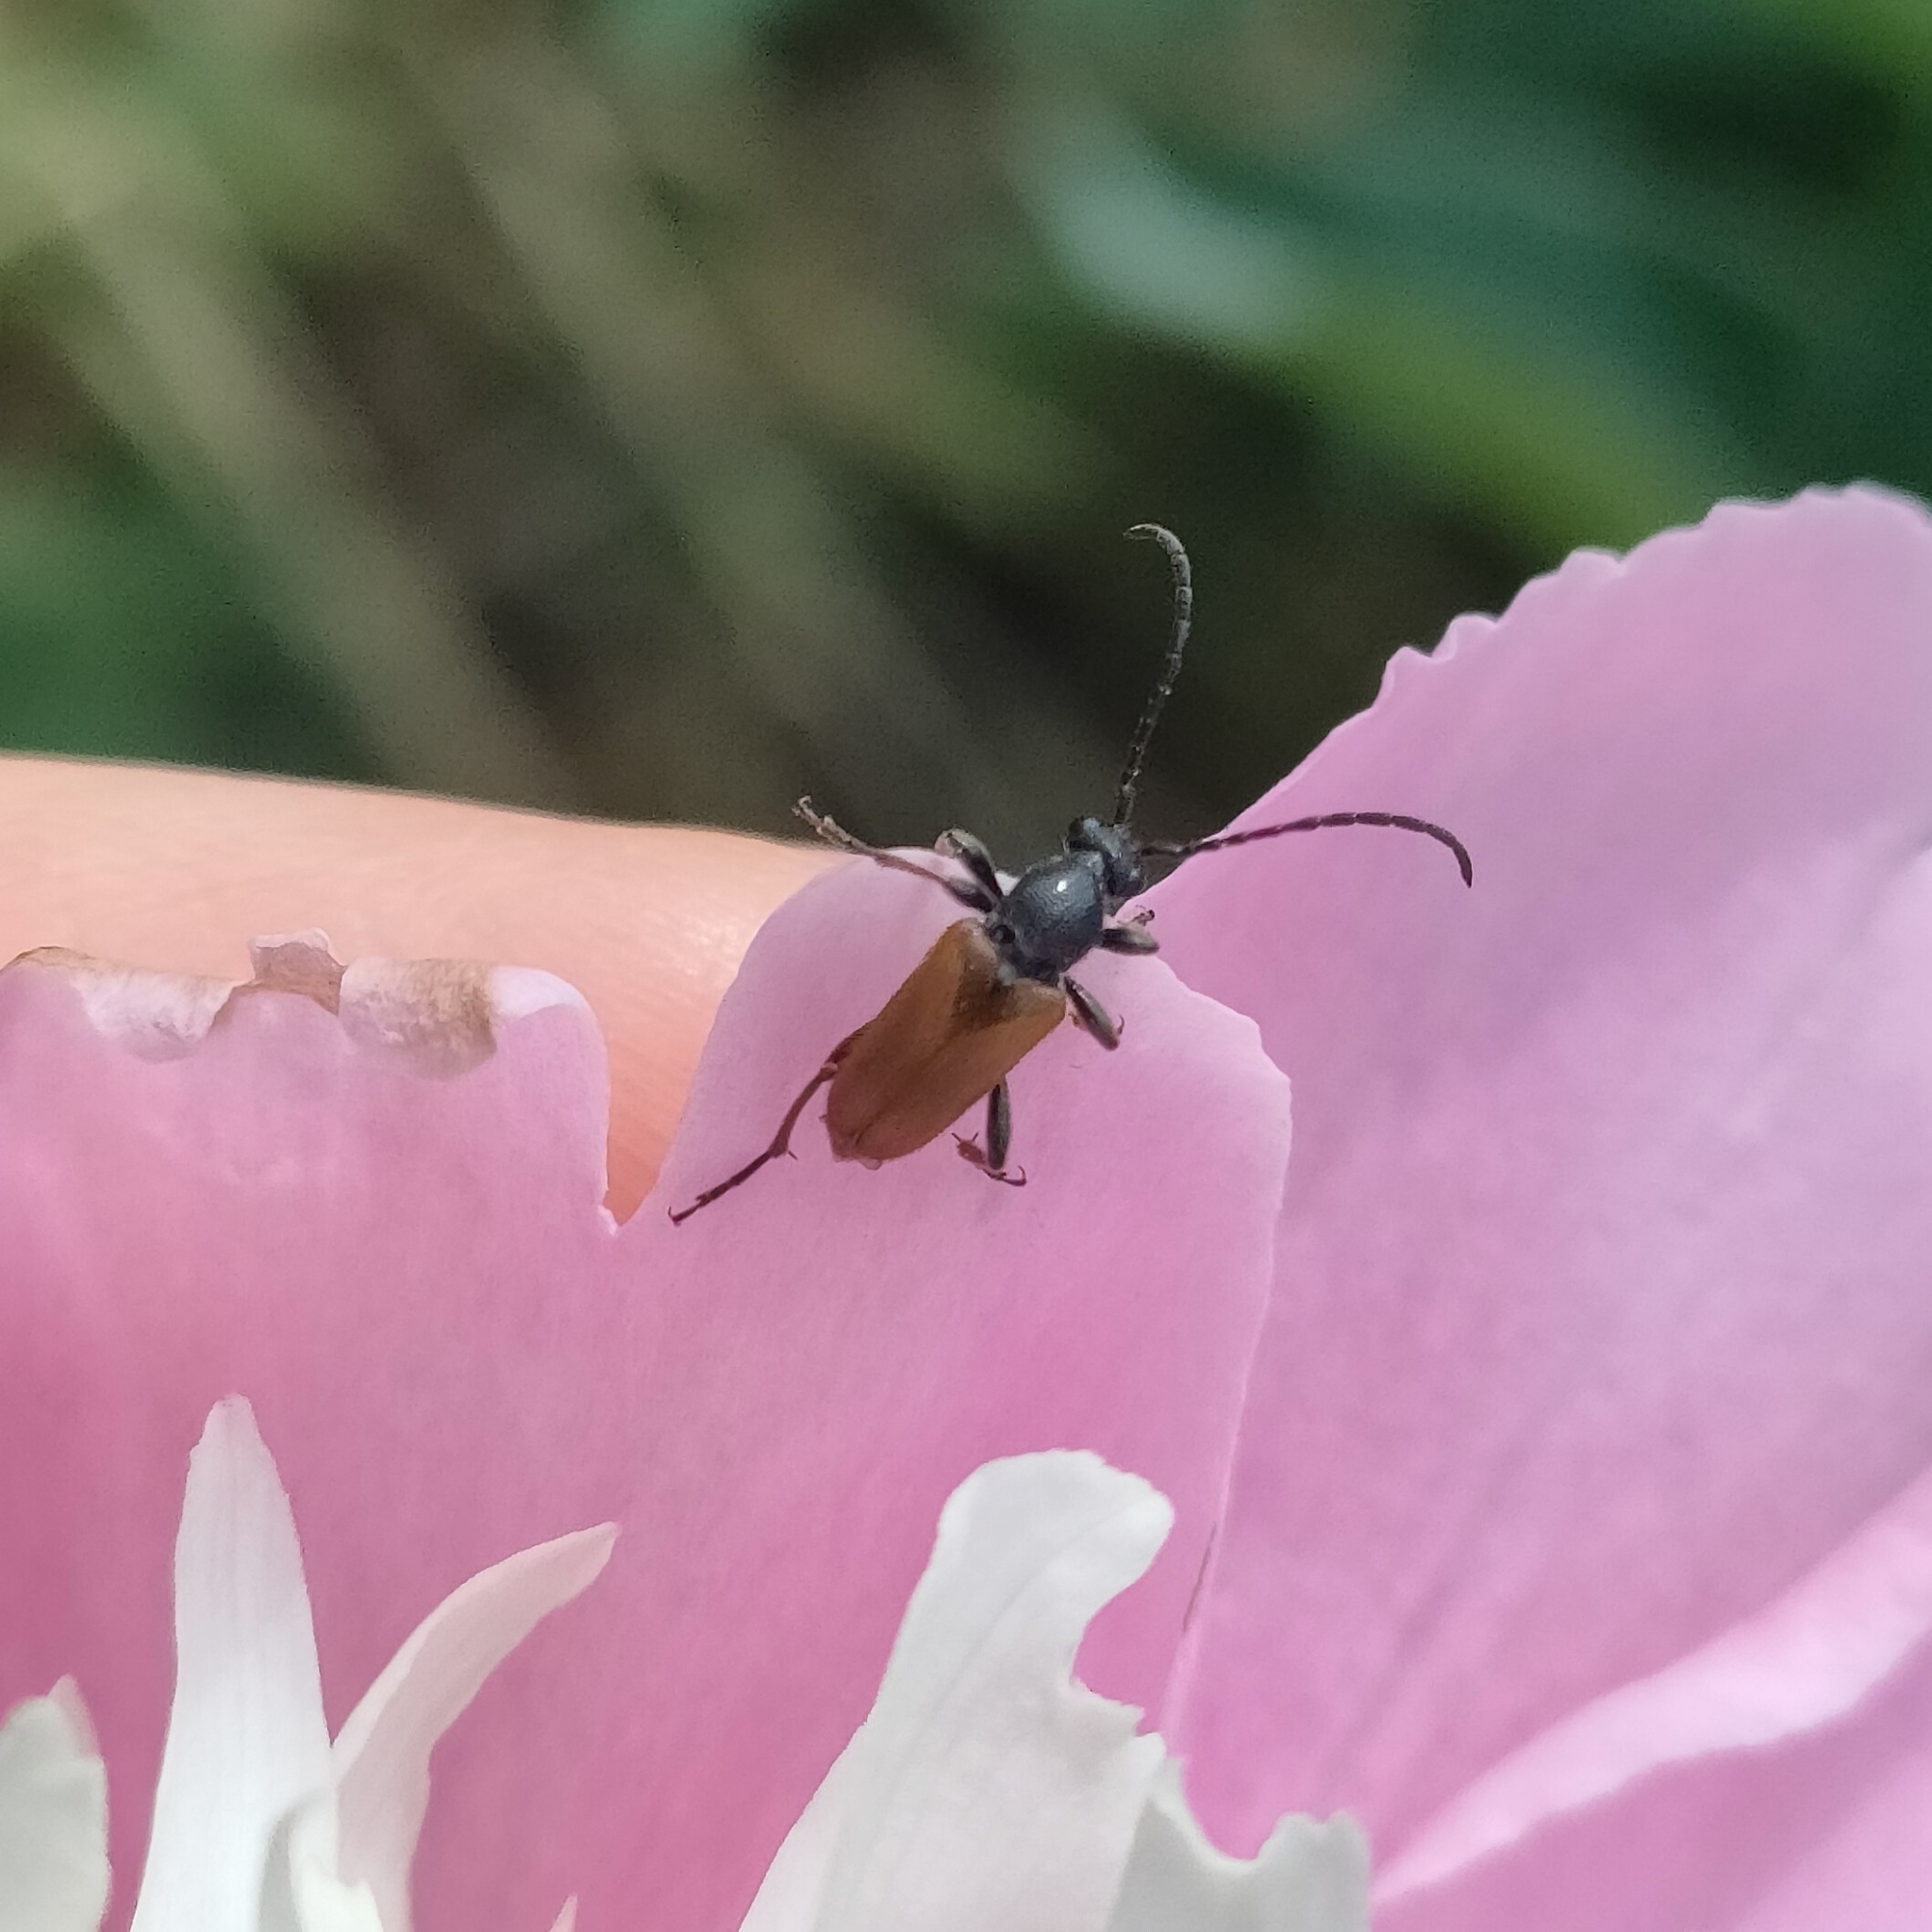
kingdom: Animalia
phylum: Arthropoda
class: Insecta
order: Coleoptera
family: Cerambycidae
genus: Pseudovadonia
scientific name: Pseudovadonia livida
